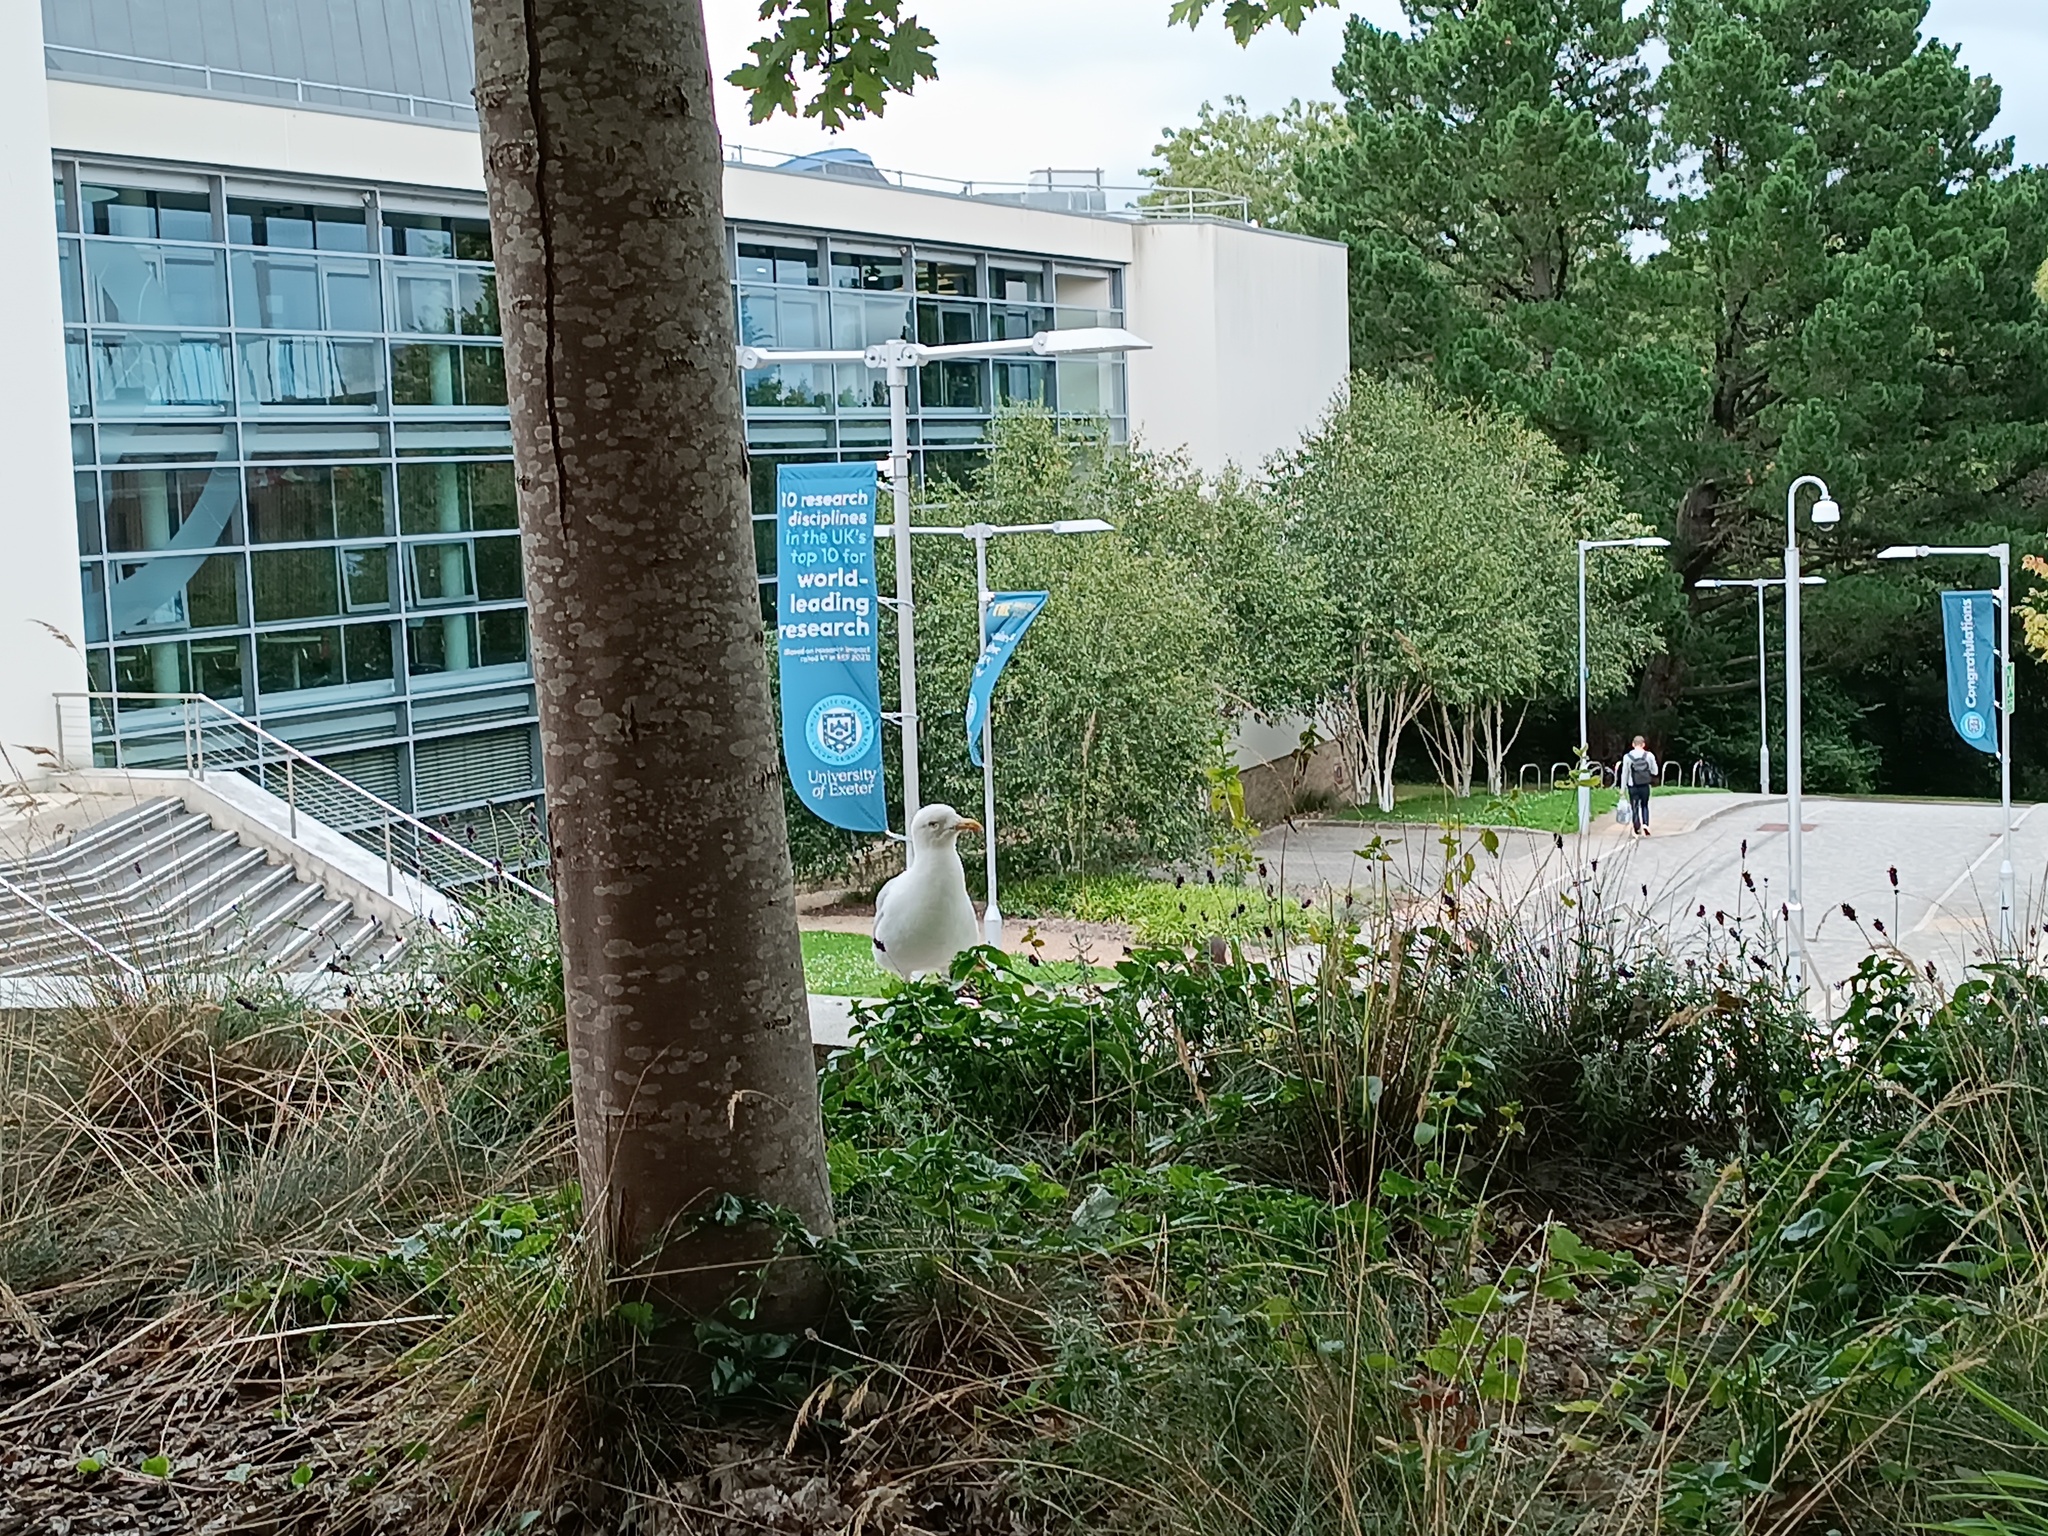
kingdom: Animalia
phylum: Chordata
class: Aves
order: Charadriiformes
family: Laridae
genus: Larus
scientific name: Larus argentatus
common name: Herring gull
